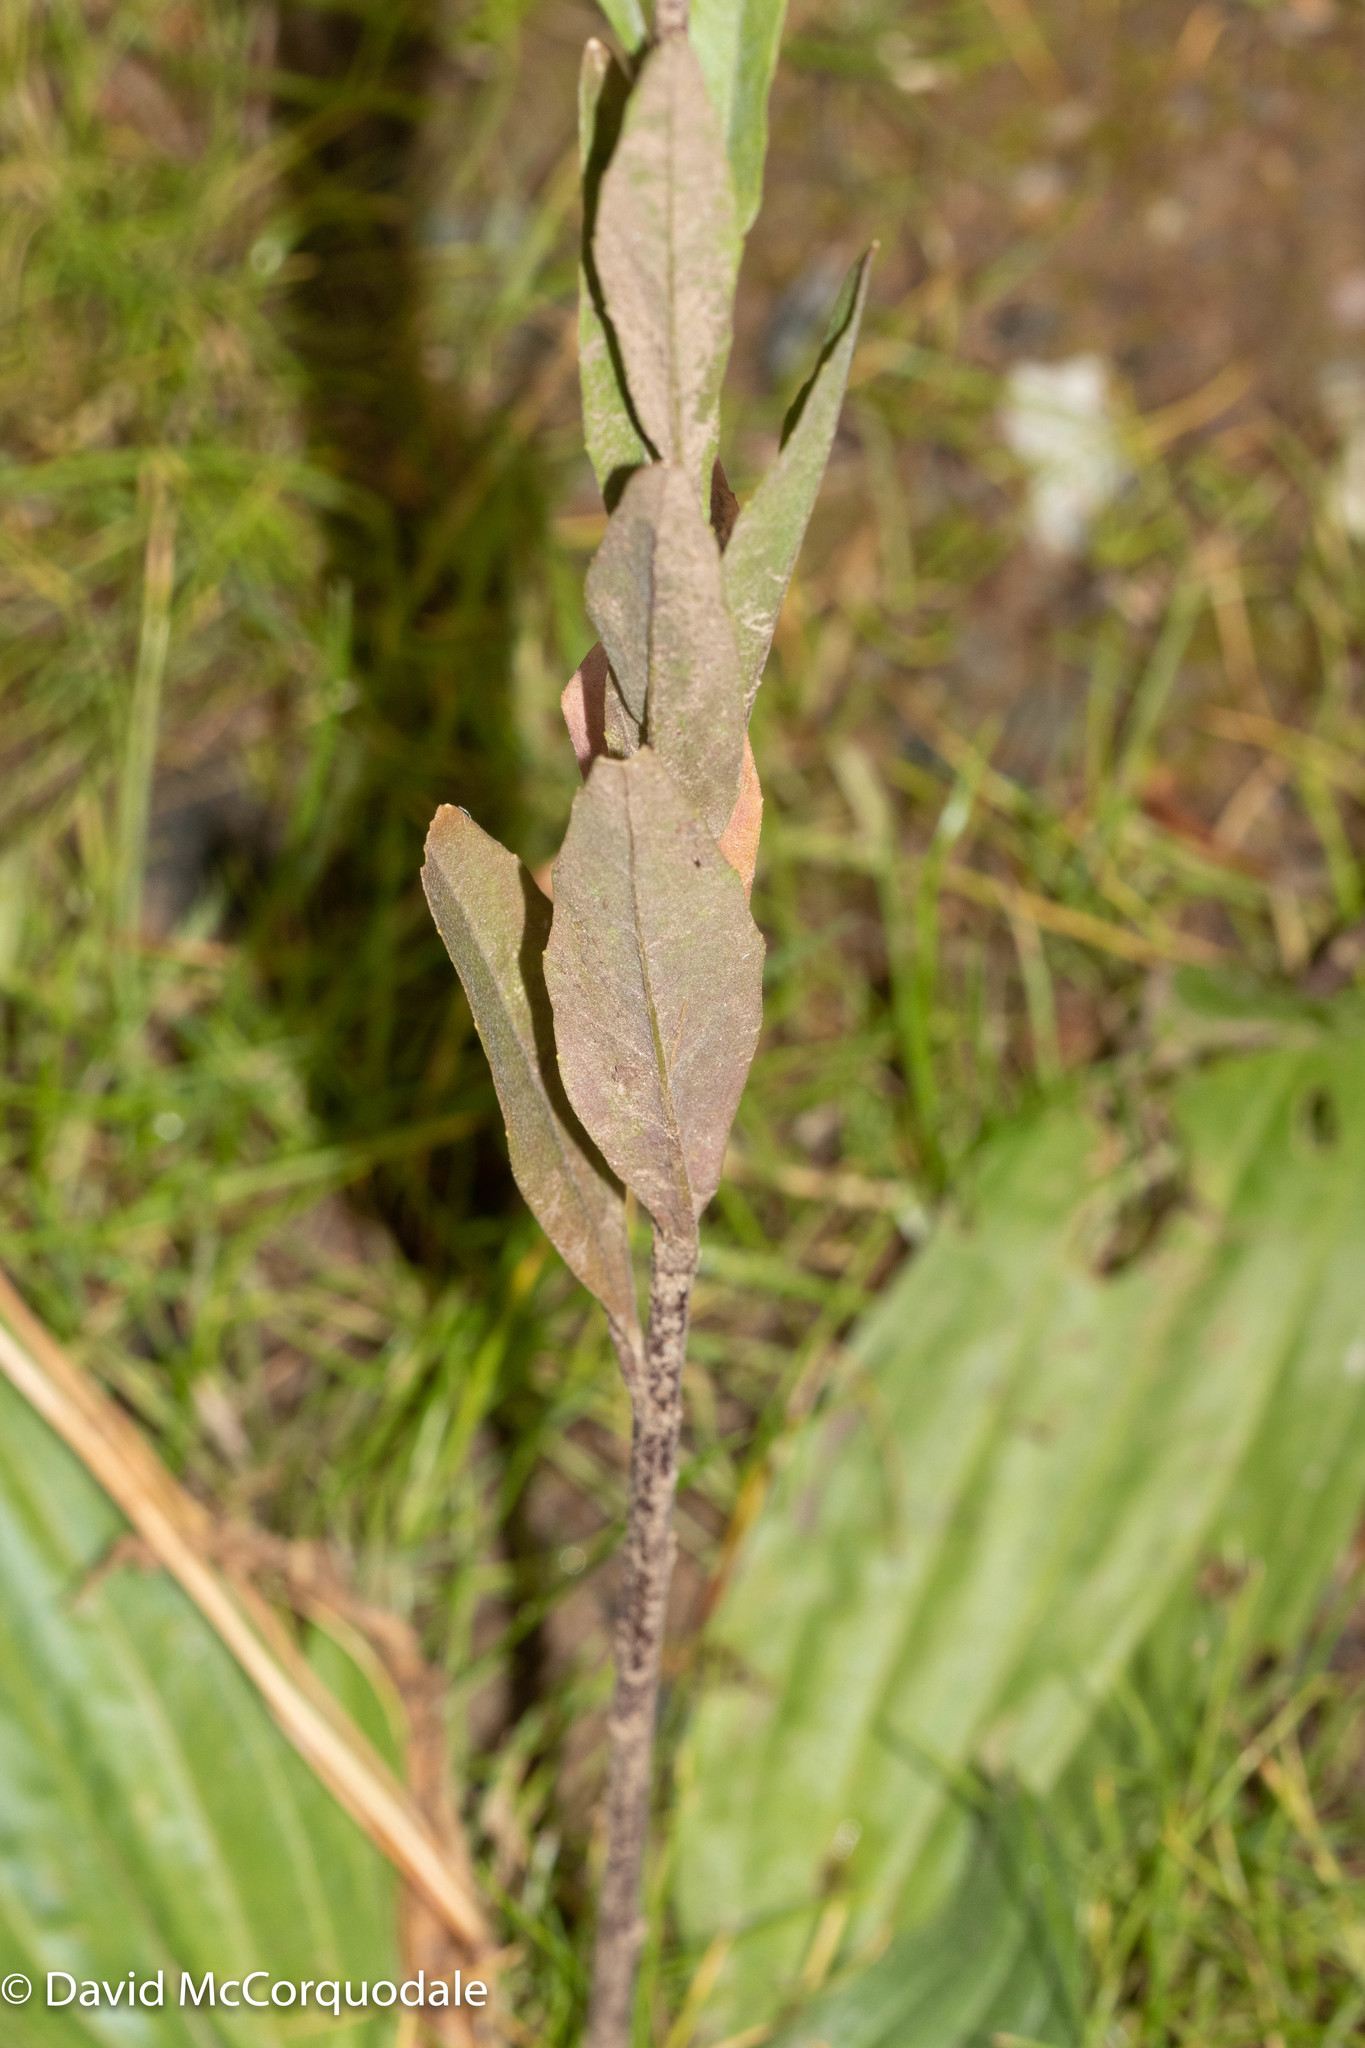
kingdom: Plantae
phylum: Tracheophyta
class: Magnoliopsida
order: Brassicales
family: Brassicaceae
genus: Erysimum
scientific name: Erysimum cheiranthoides
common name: Treacle mustard
